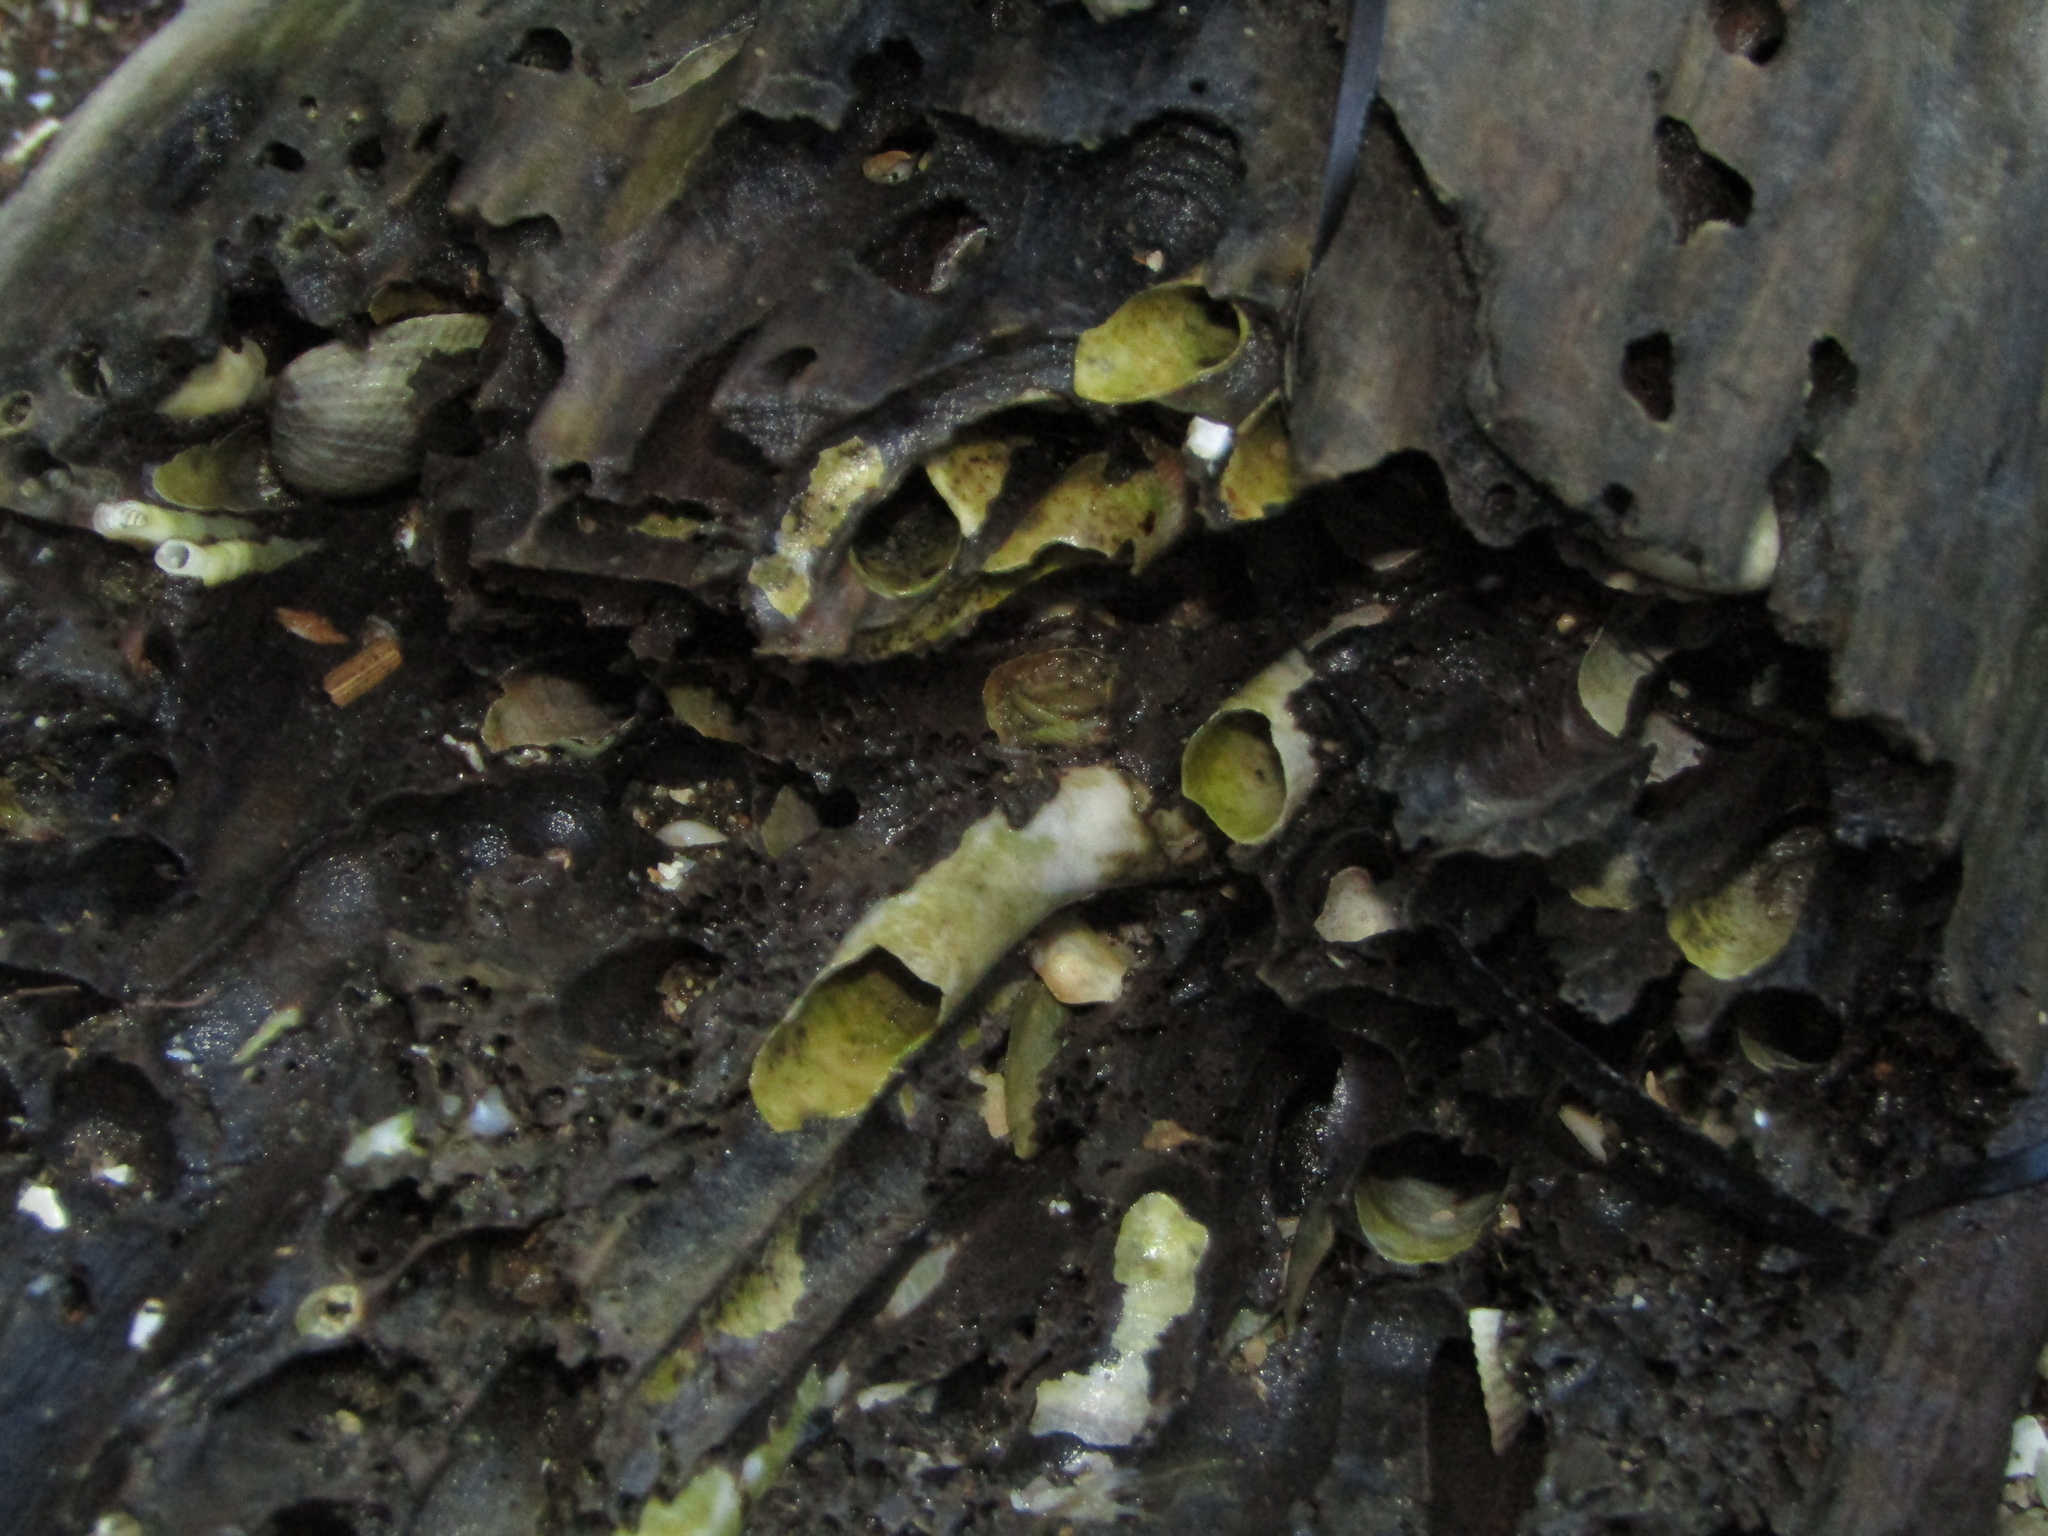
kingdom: Animalia
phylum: Mollusca
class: Bivalvia
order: Myida
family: Teredinidae
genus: Bankia
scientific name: Bankia australis
